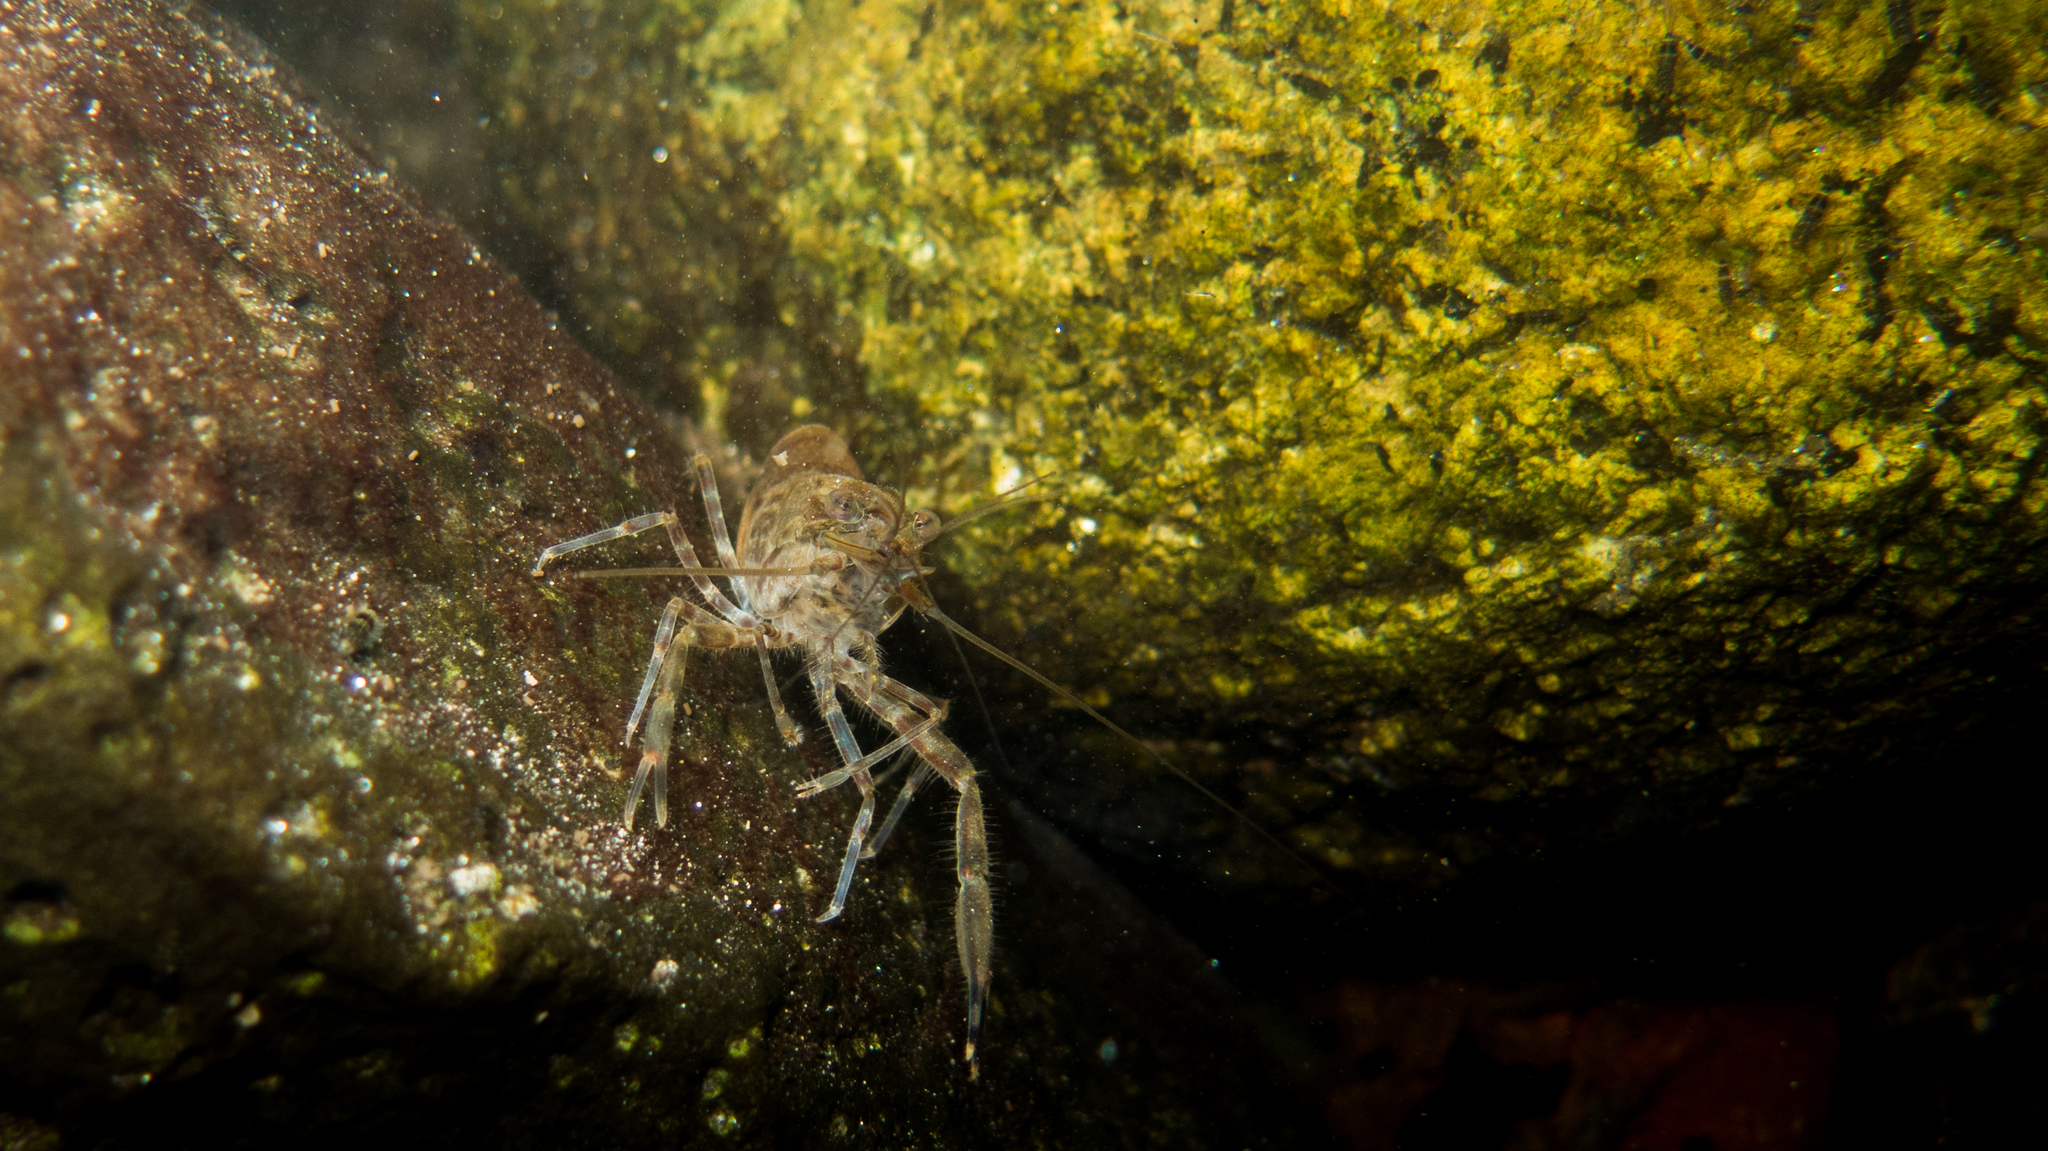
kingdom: Animalia
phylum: Arthropoda
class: Malacostraca
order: Decapoda
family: Palaemonidae
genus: Macrobrachium
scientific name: Macrobrachium olfersii
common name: Bristled river shrimp
